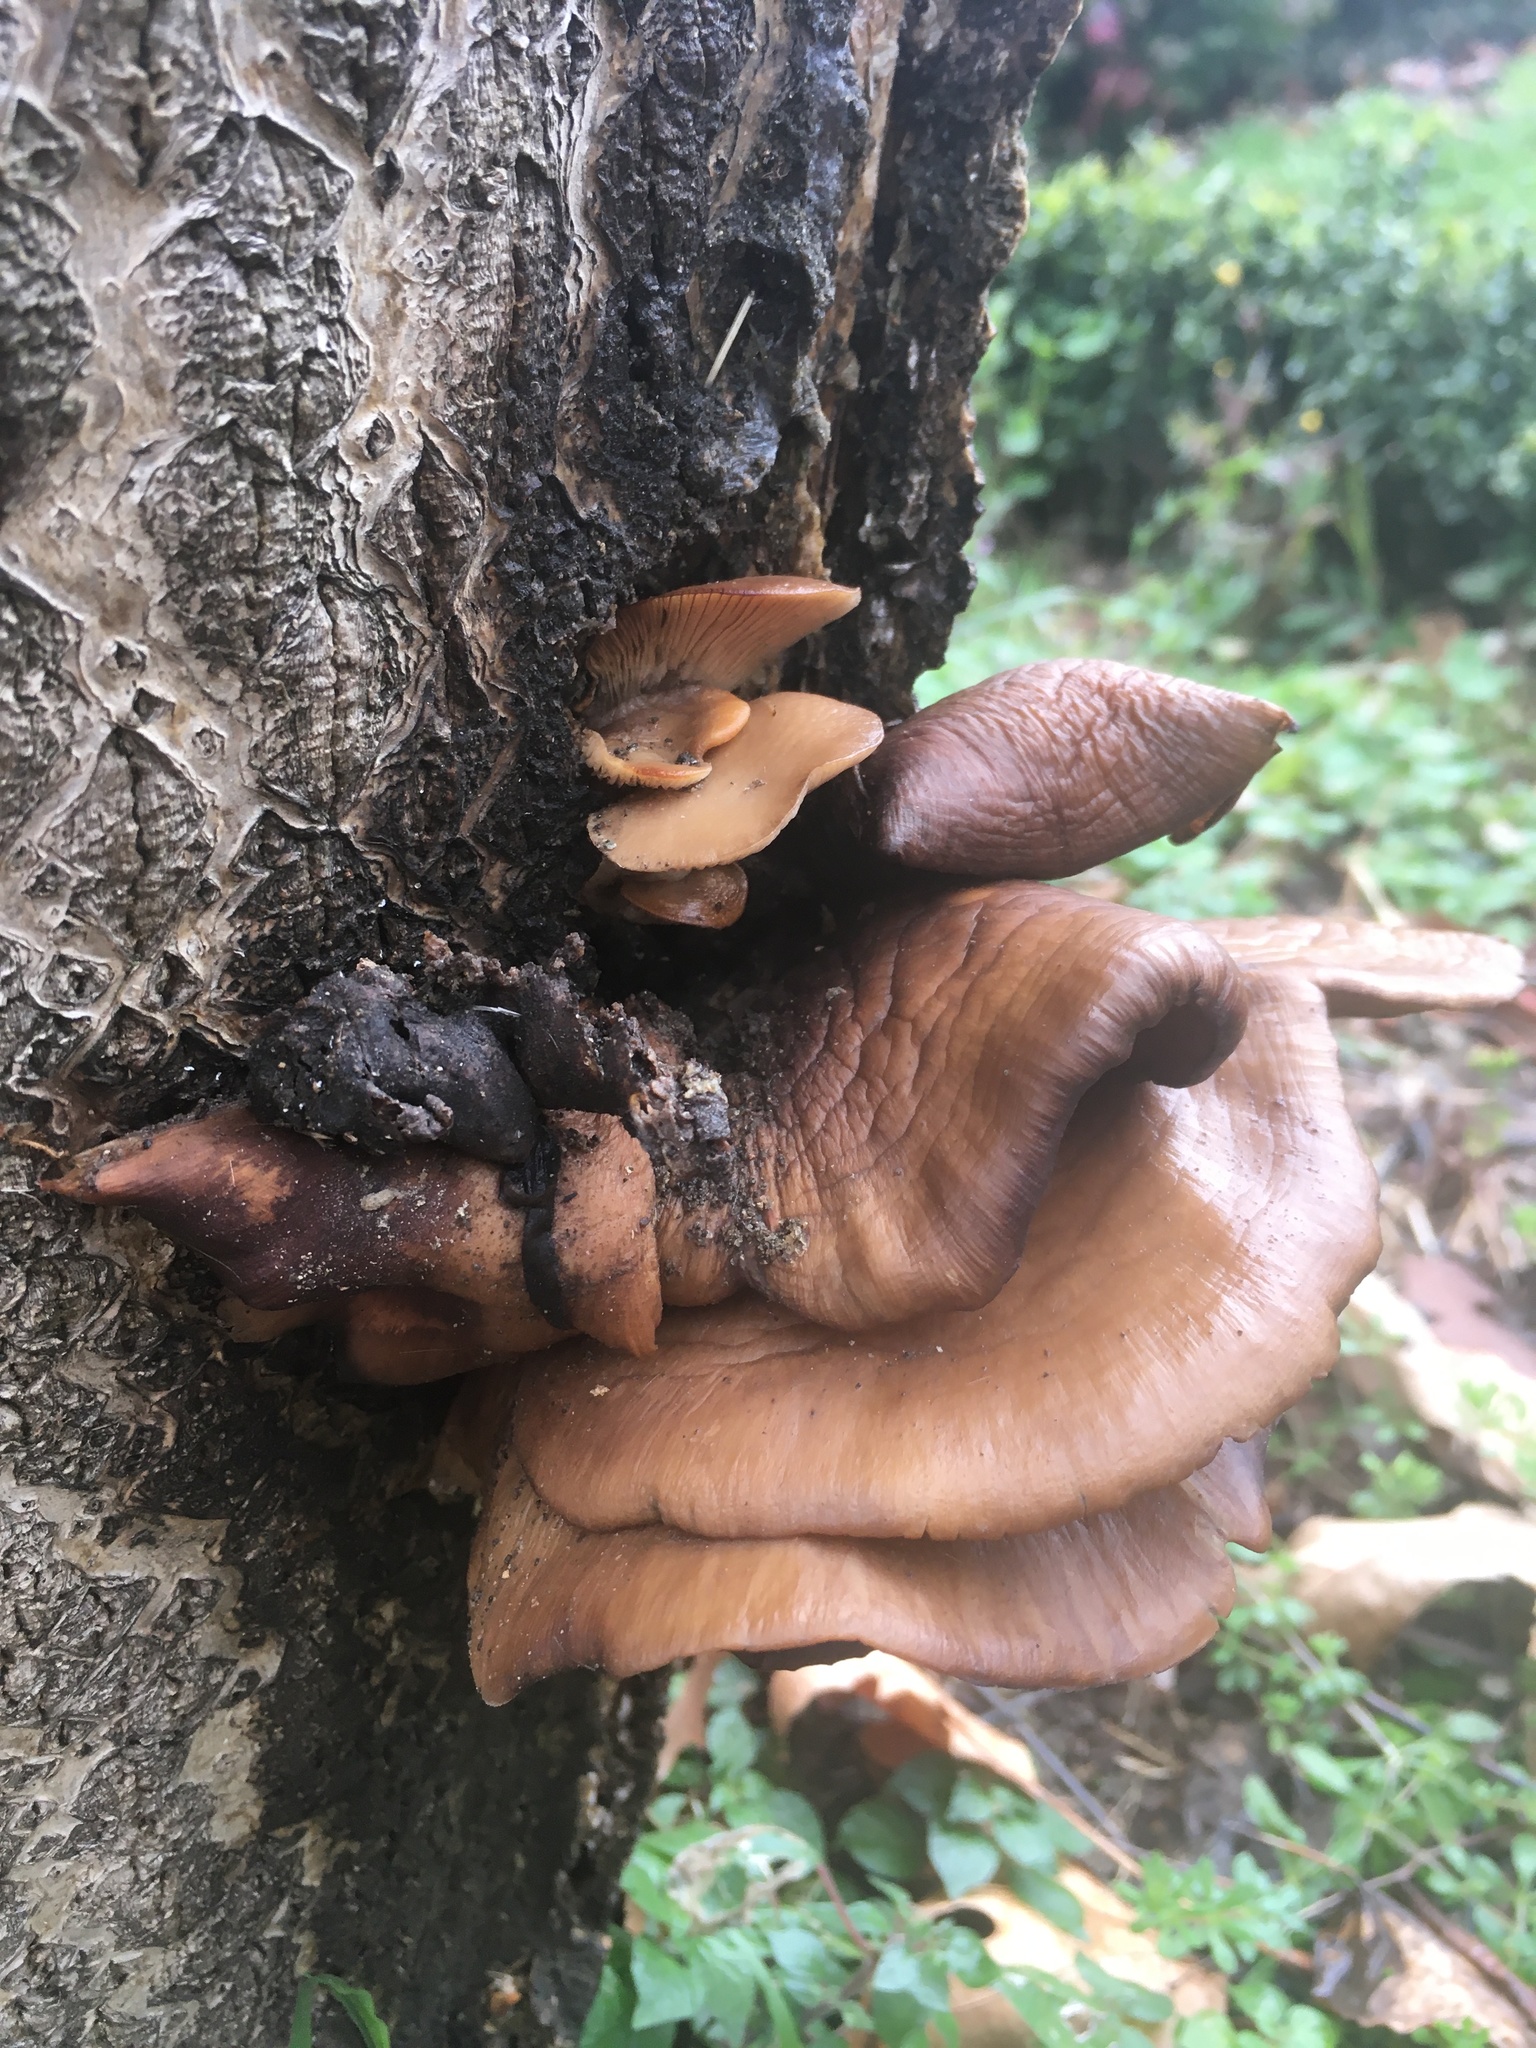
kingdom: Fungi
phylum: Basidiomycota
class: Agaricomycetes
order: Agaricales
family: Pleurotaceae
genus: Pleurotus
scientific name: Pleurotus ostreatus
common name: Oyster mushroom
